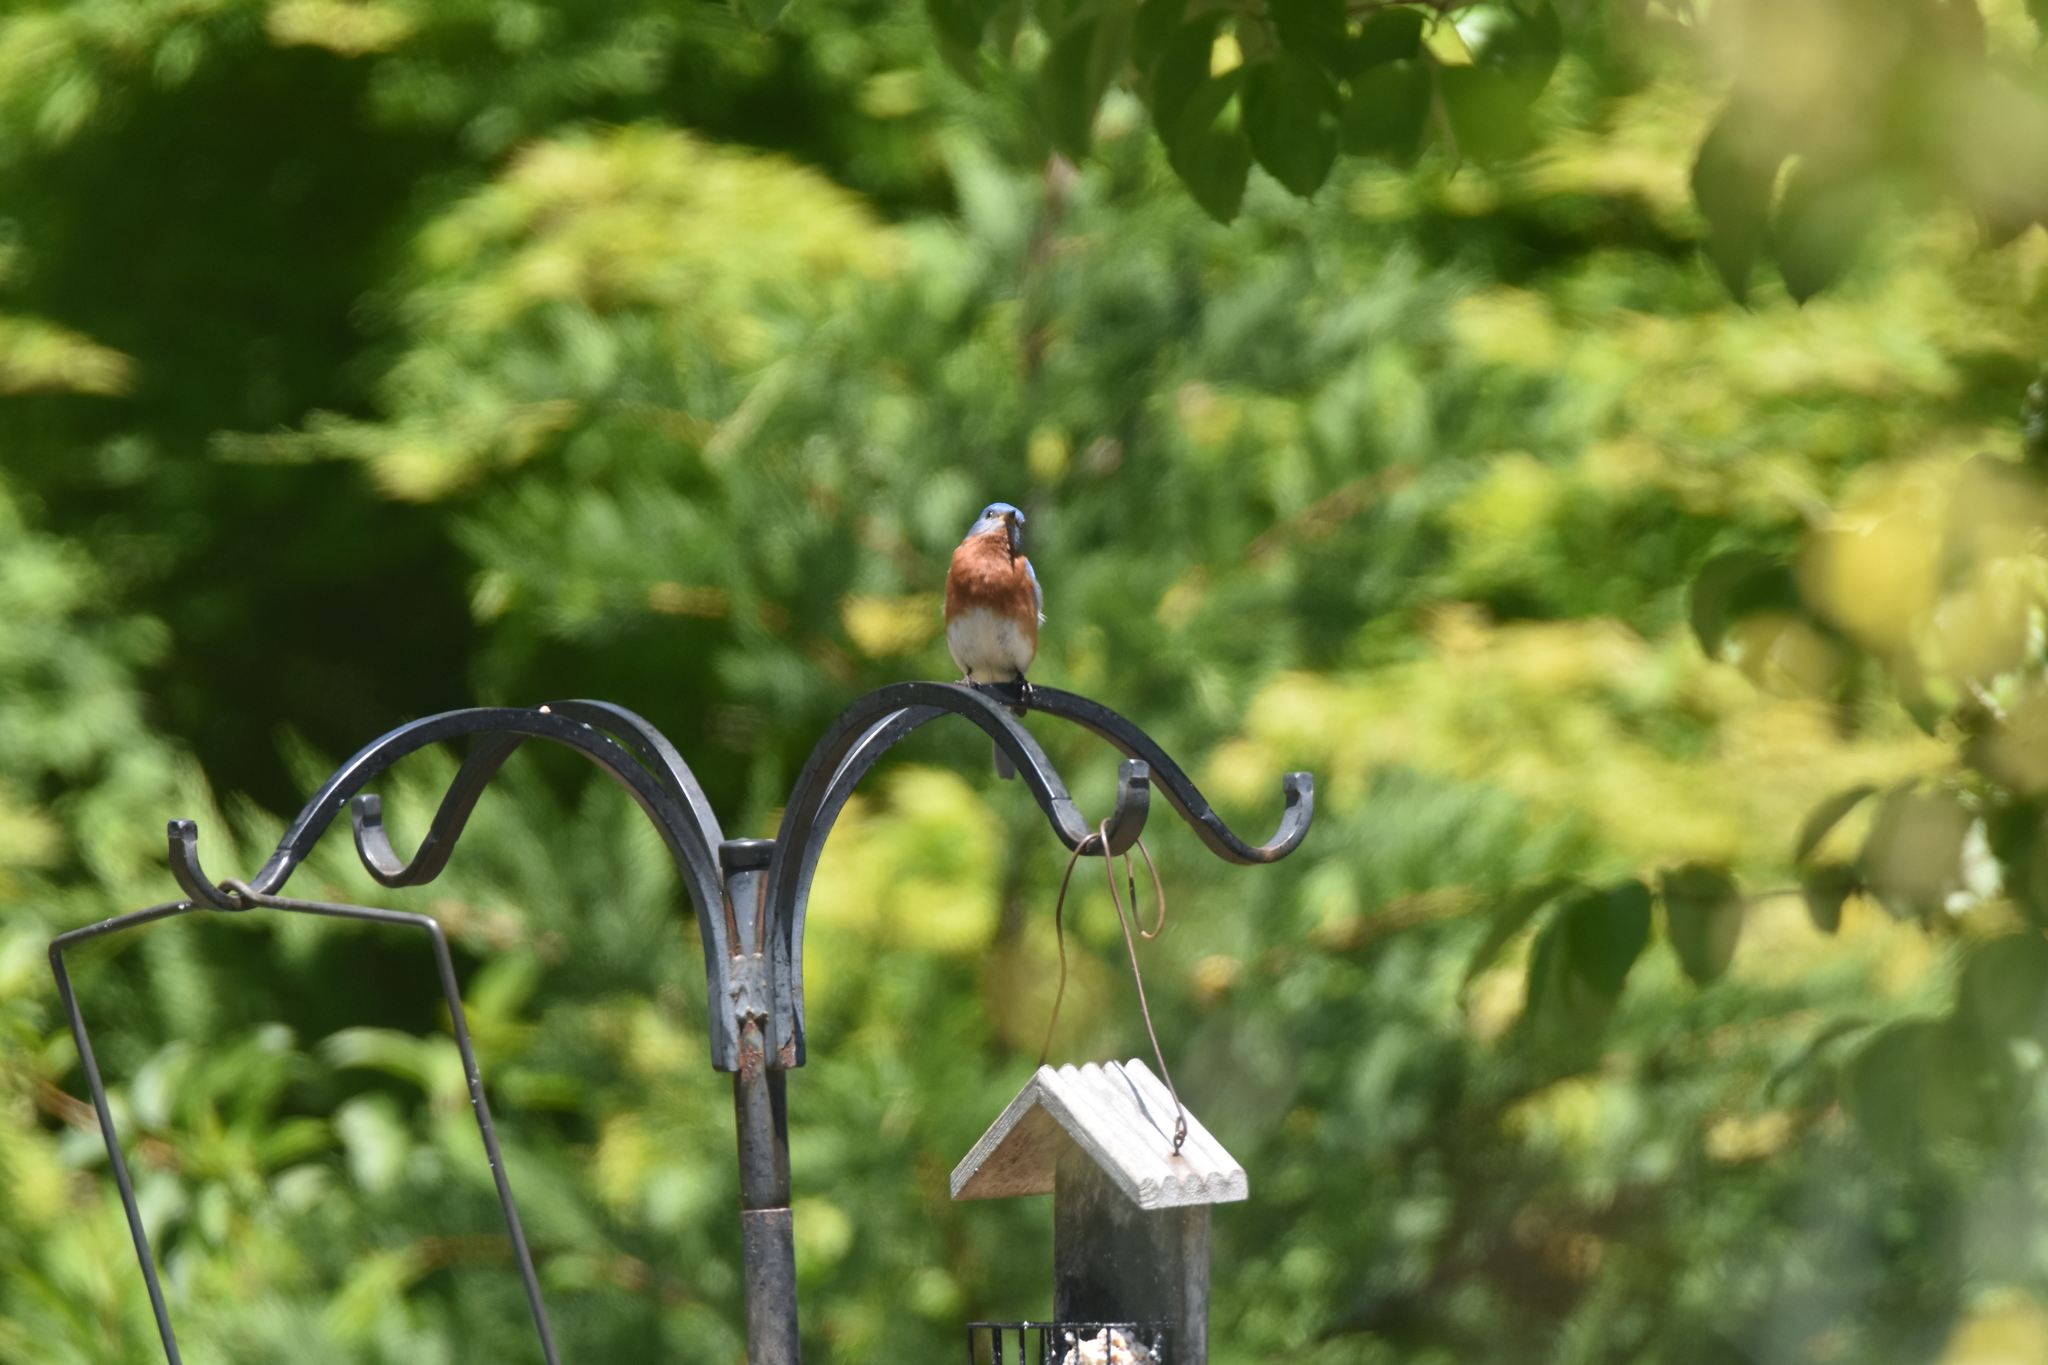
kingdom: Animalia
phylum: Chordata
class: Aves
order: Passeriformes
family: Turdidae
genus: Sialia
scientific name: Sialia sialis
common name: Eastern bluebird
